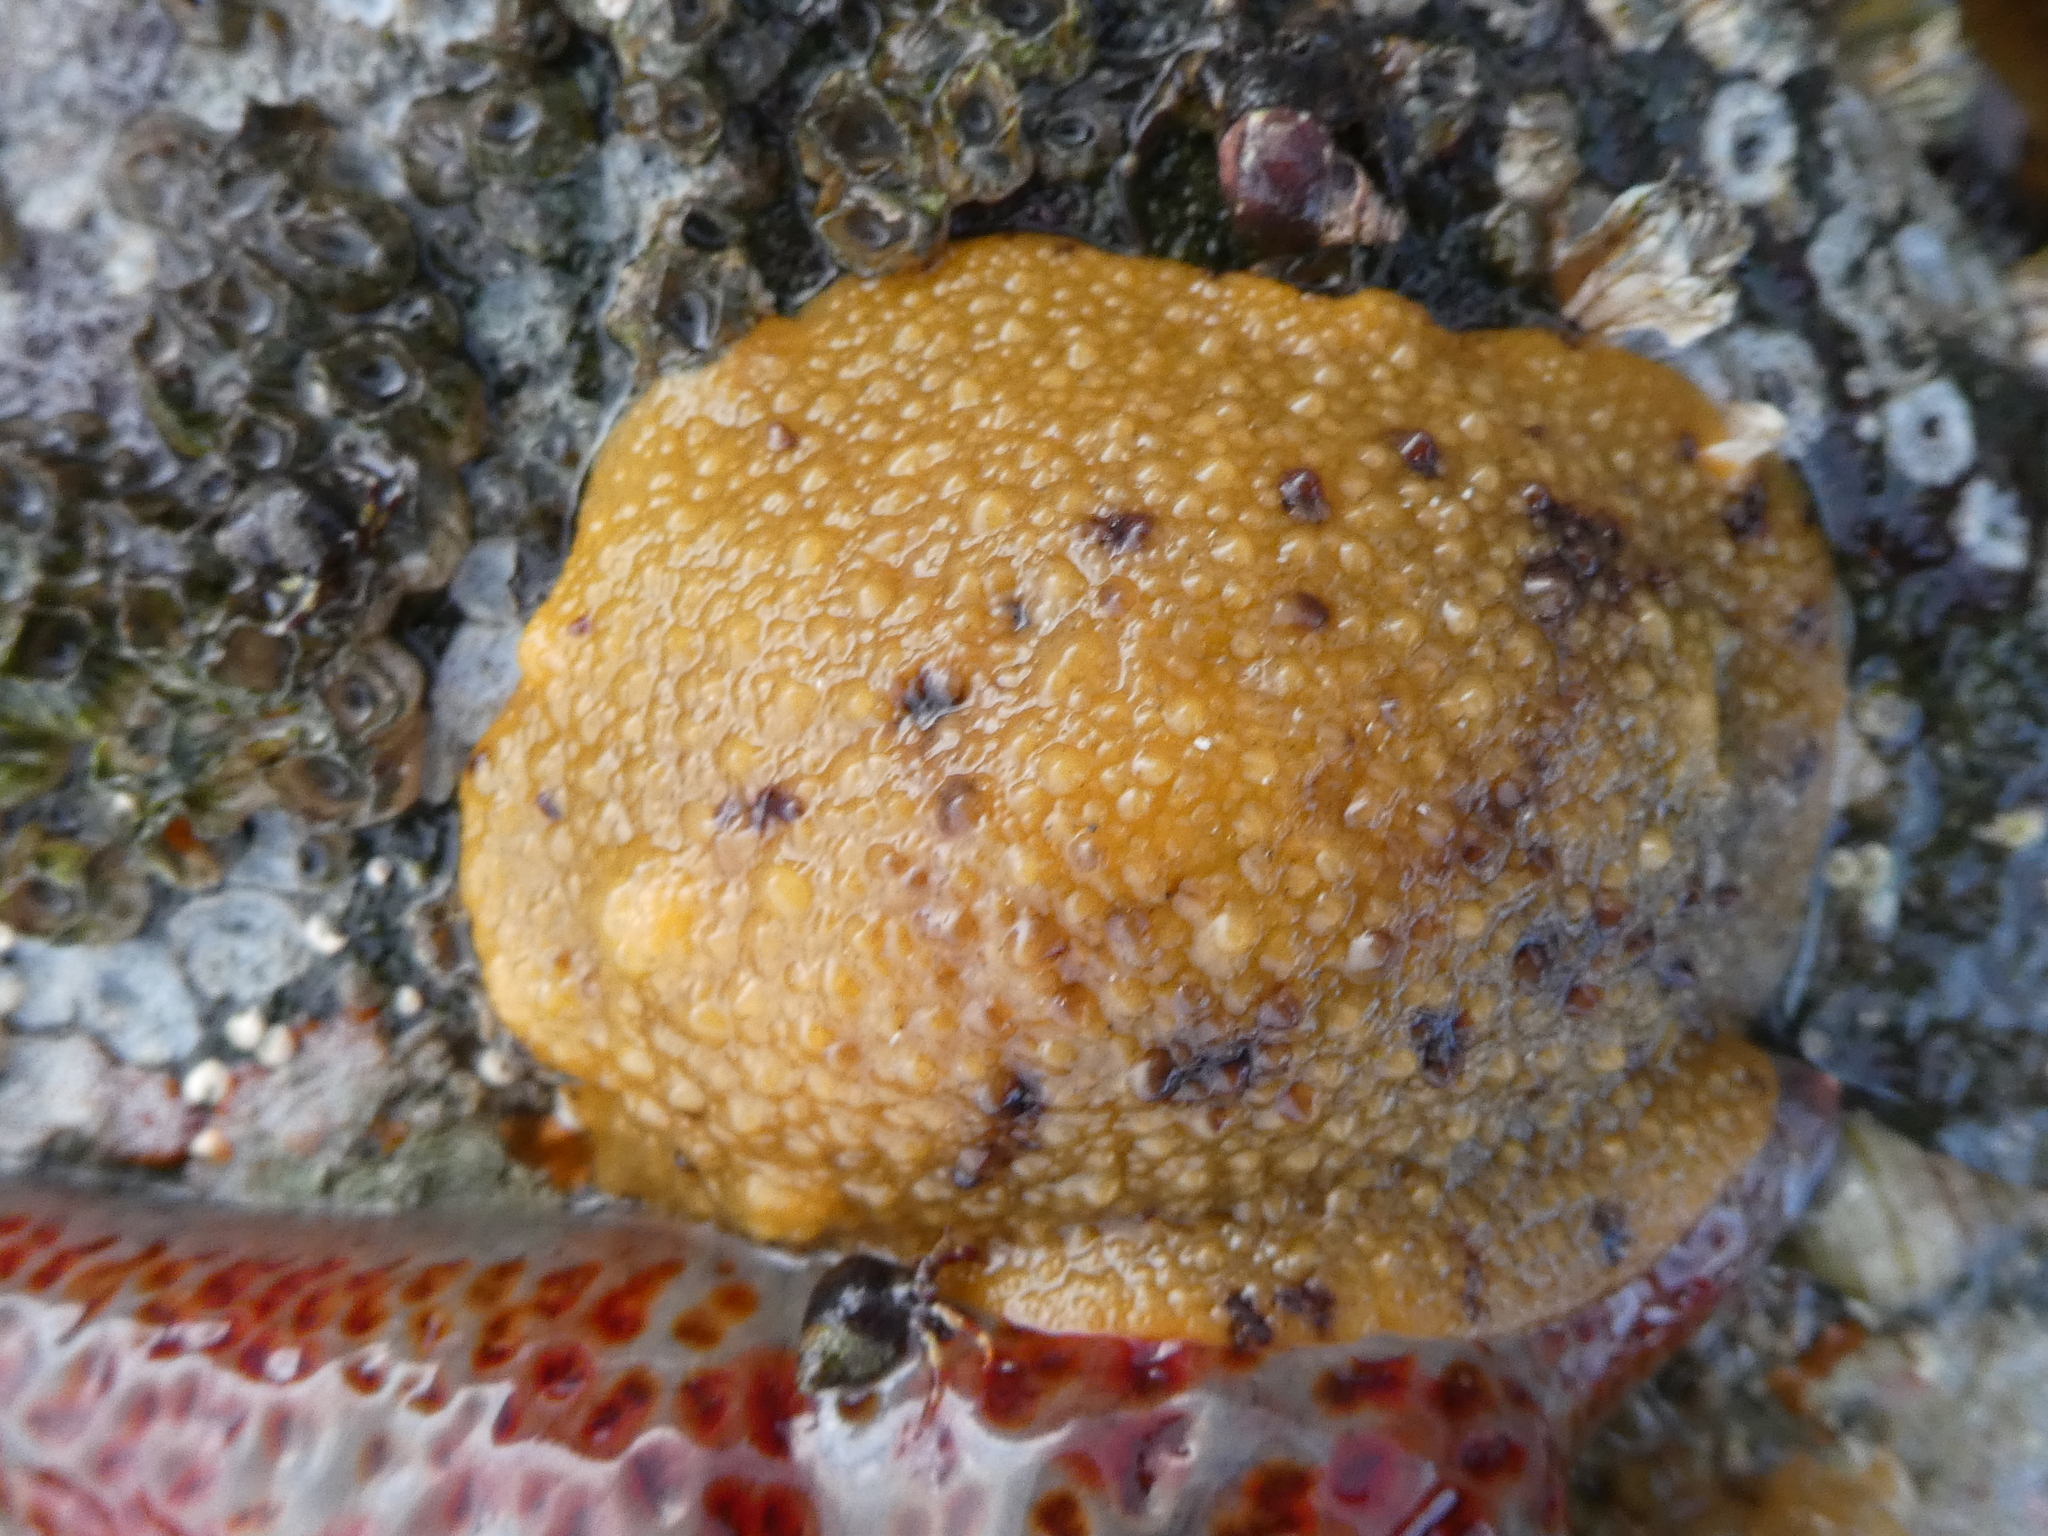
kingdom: Animalia
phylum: Mollusca
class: Gastropoda
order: Nudibranchia
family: Dorididae
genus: Doris
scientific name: Doris montereyensis
